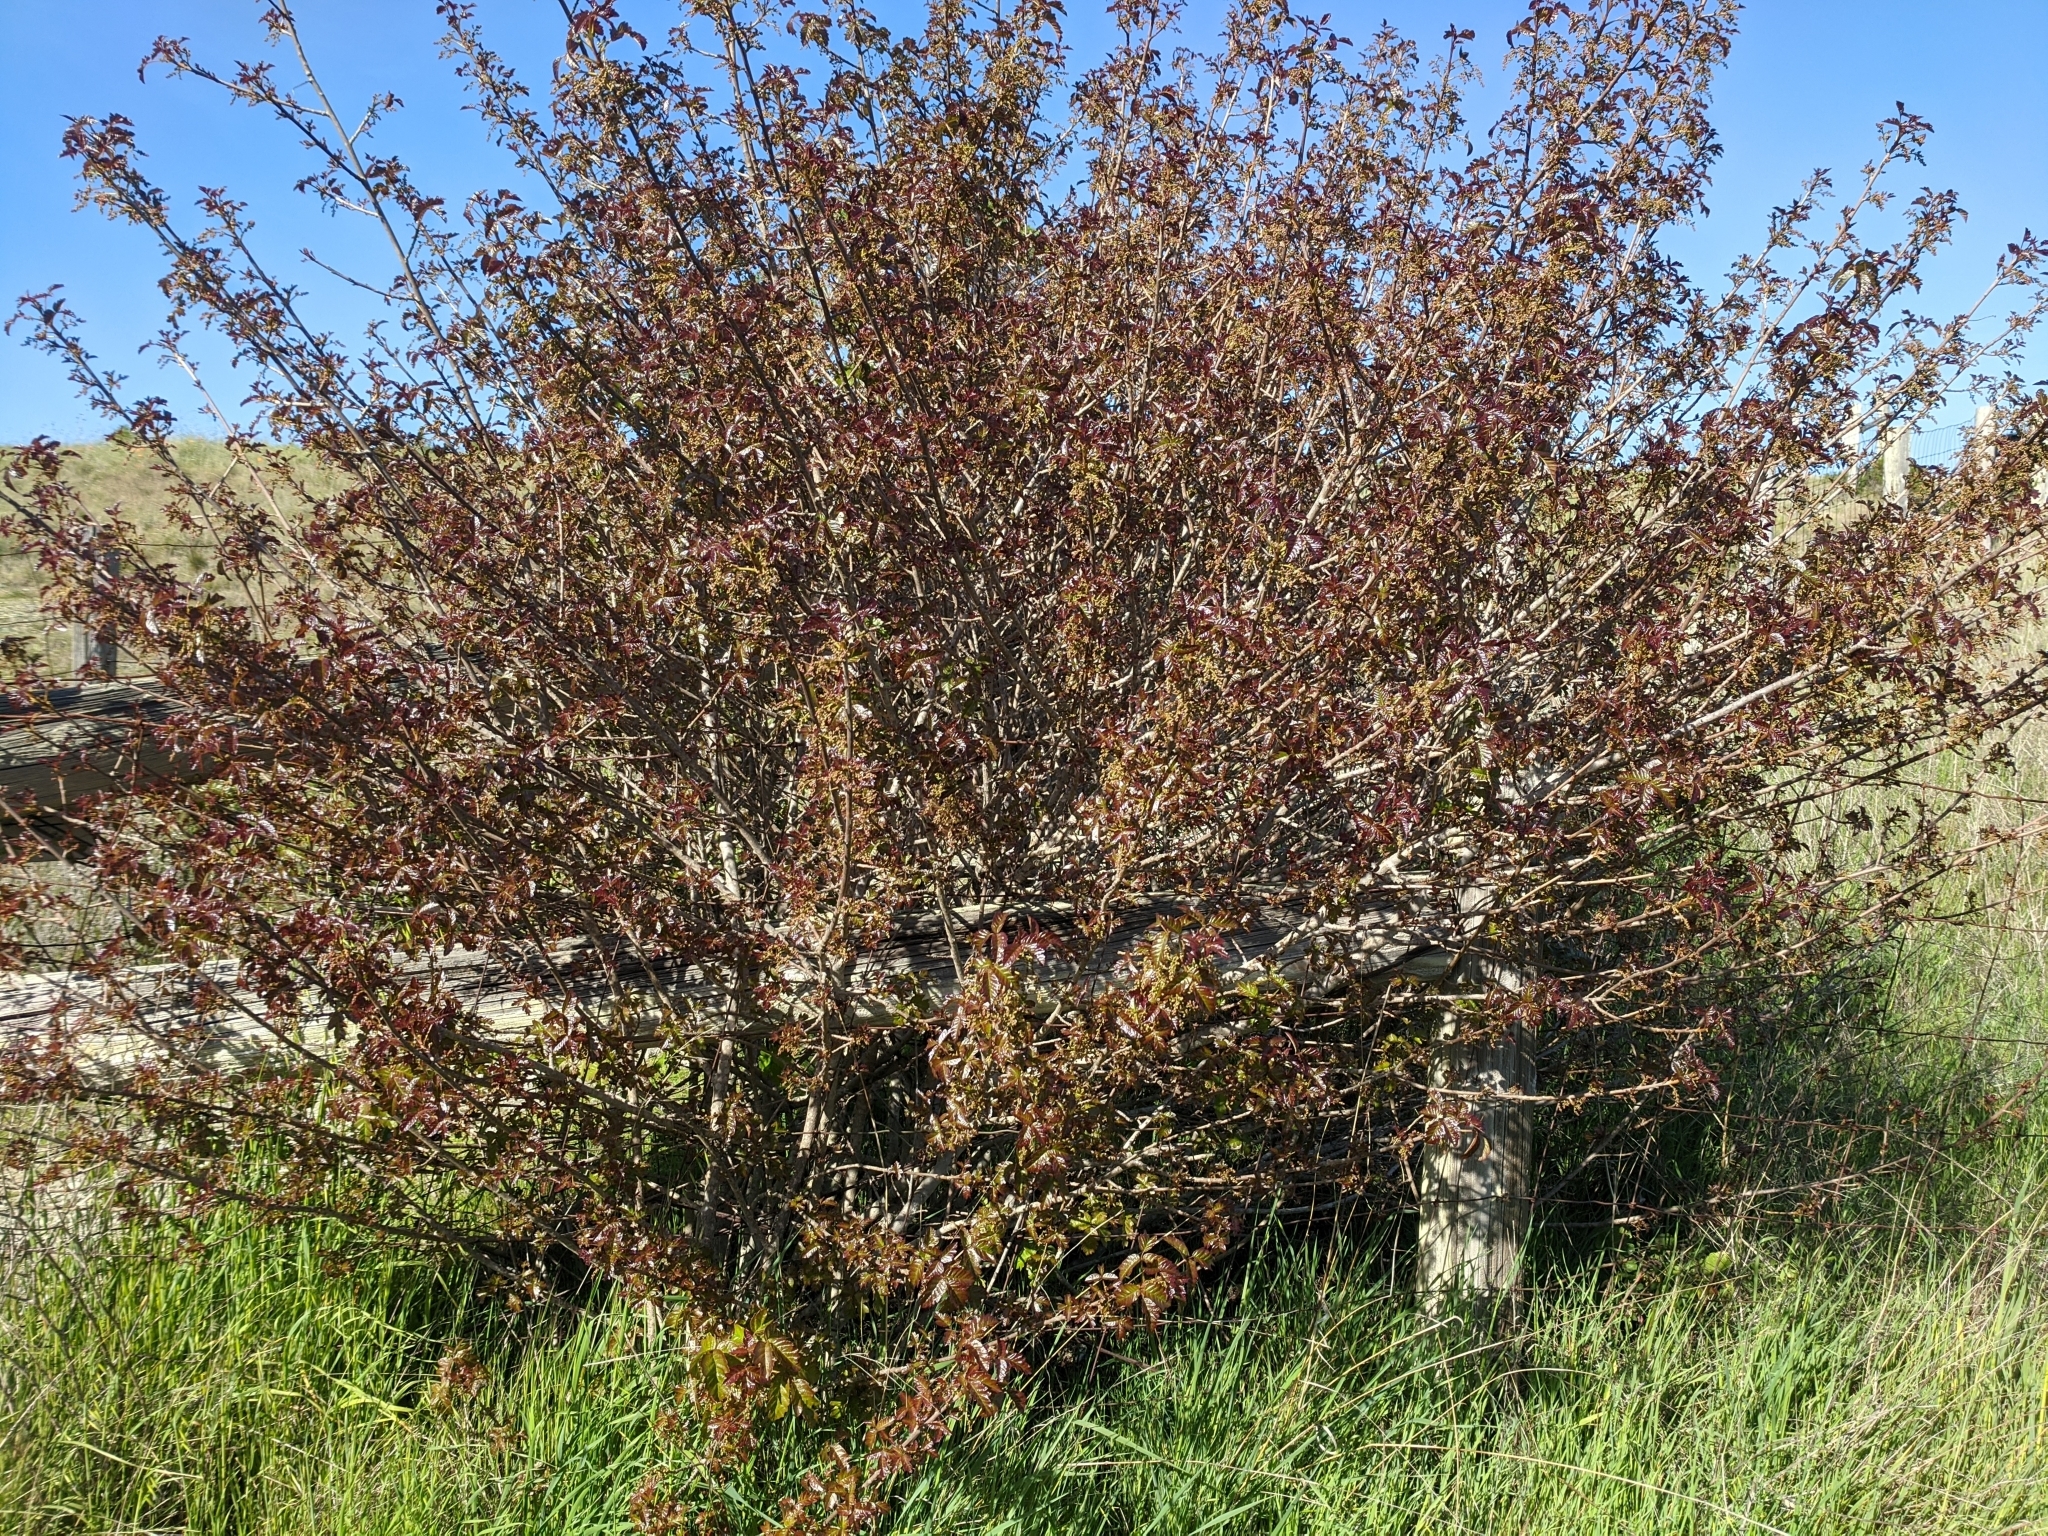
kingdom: Plantae
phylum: Tracheophyta
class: Magnoliopsida
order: Sapindales
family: Anacardiaceae
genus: Toxicodendron
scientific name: Toxicodendron diversilobum
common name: Pacific poison-oak
